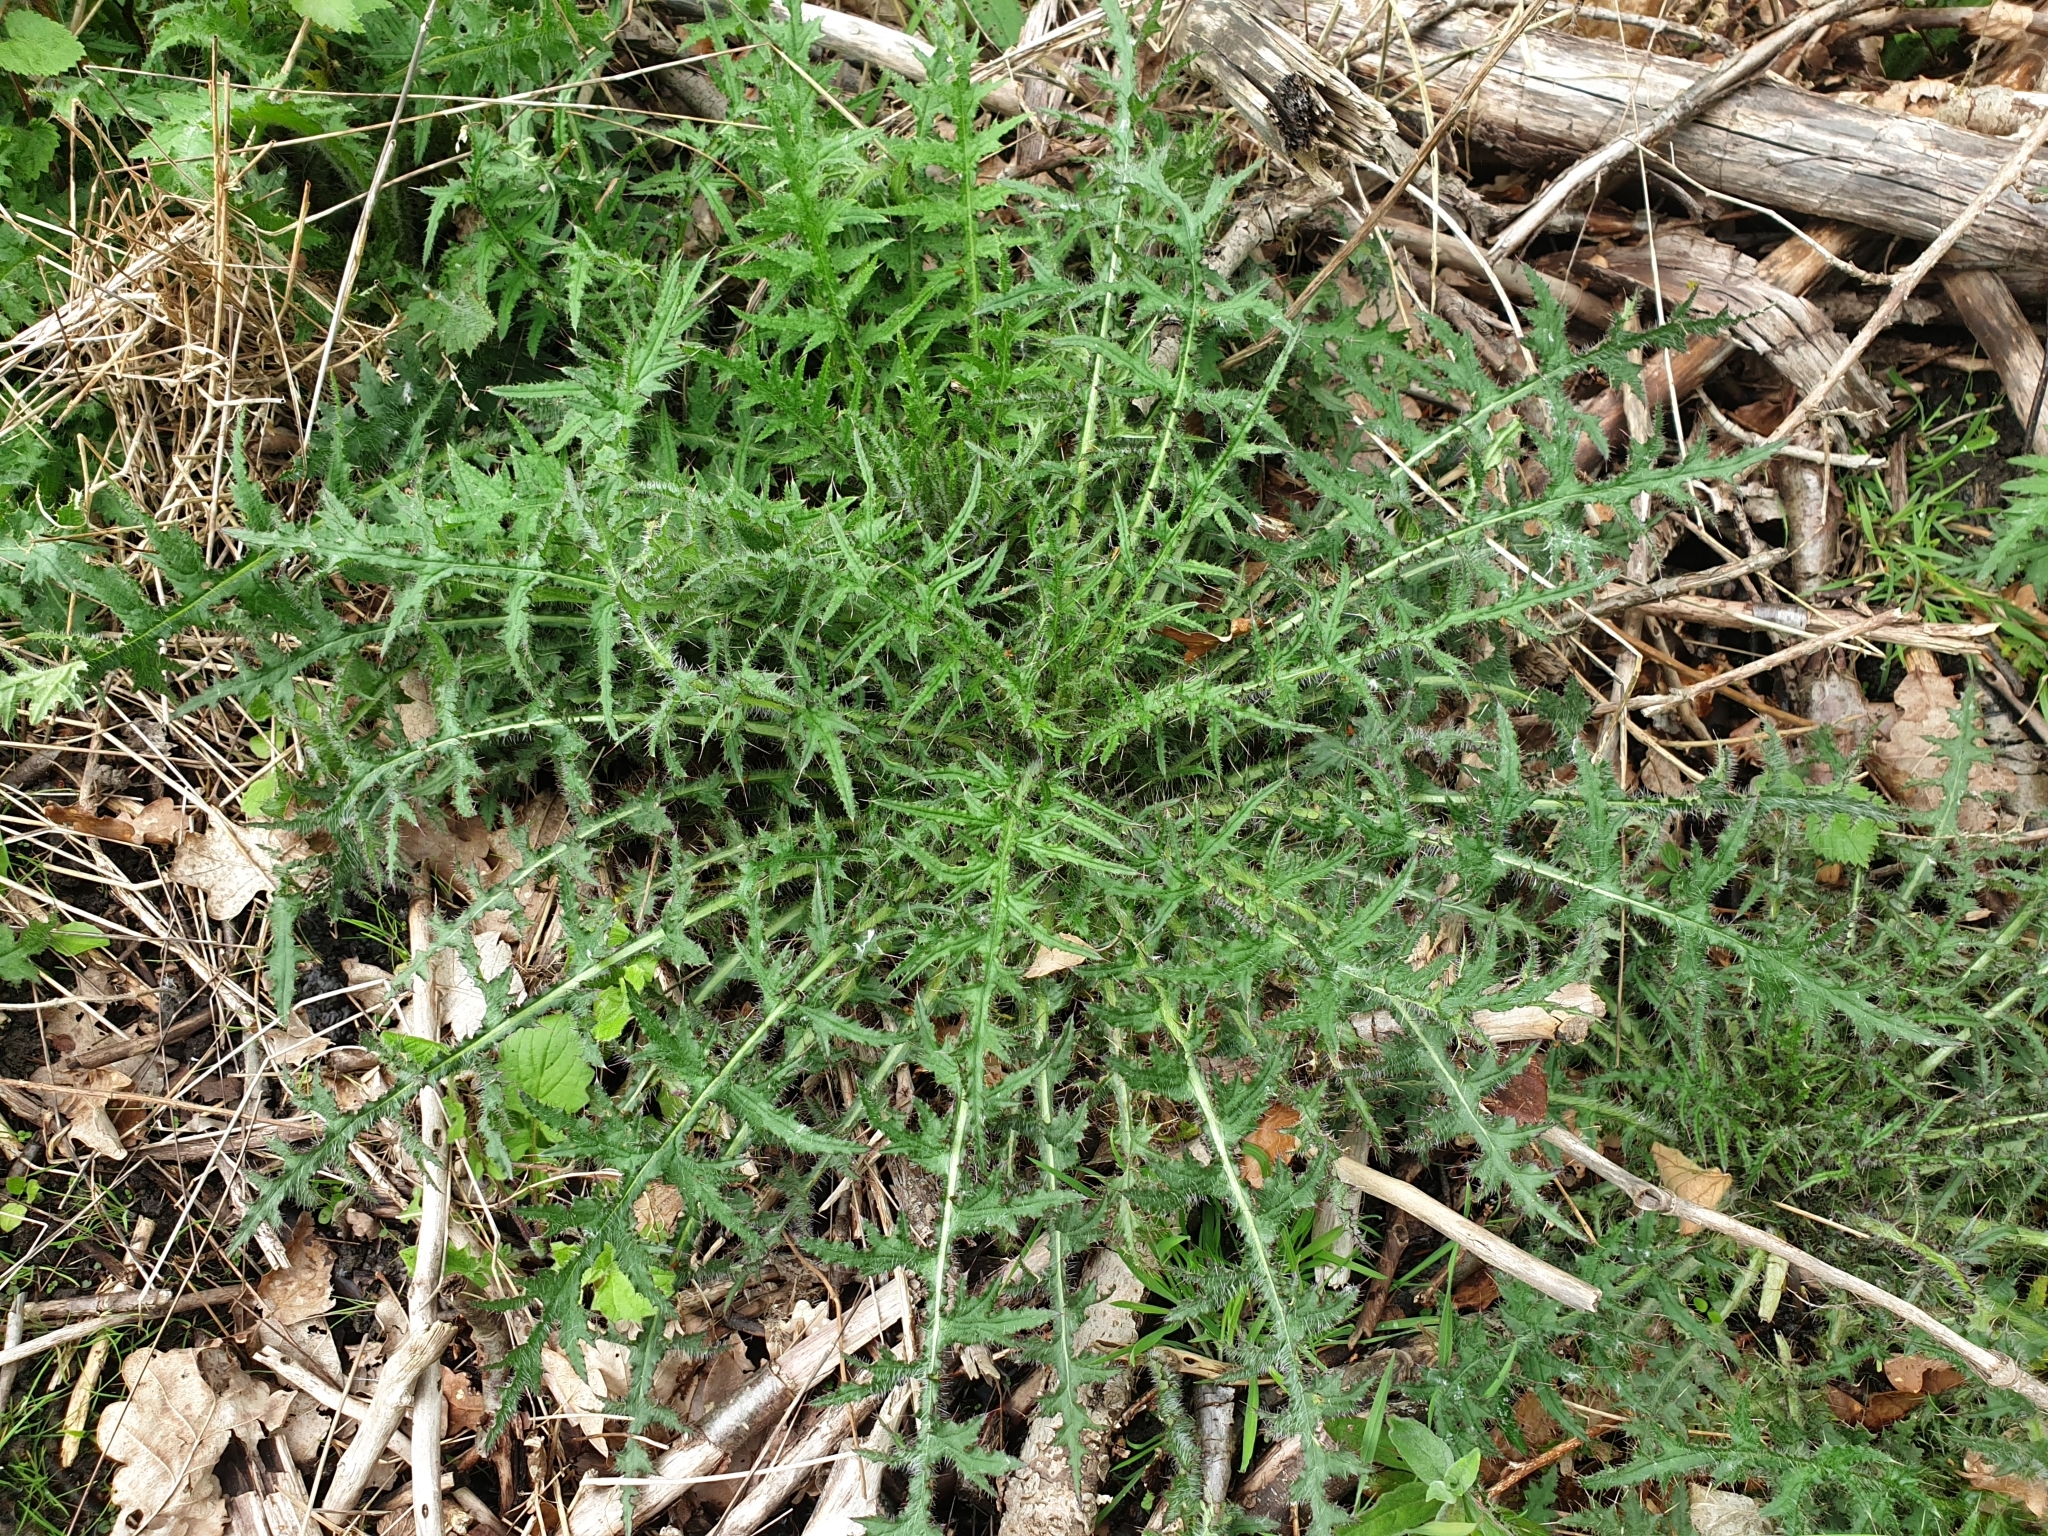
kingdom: Plantae
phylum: Tracheophyta
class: Magnoliopsida
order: Asterales
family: Asteraceae
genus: Cirsium
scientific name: Cirsium palustre
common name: Marsh thistle
